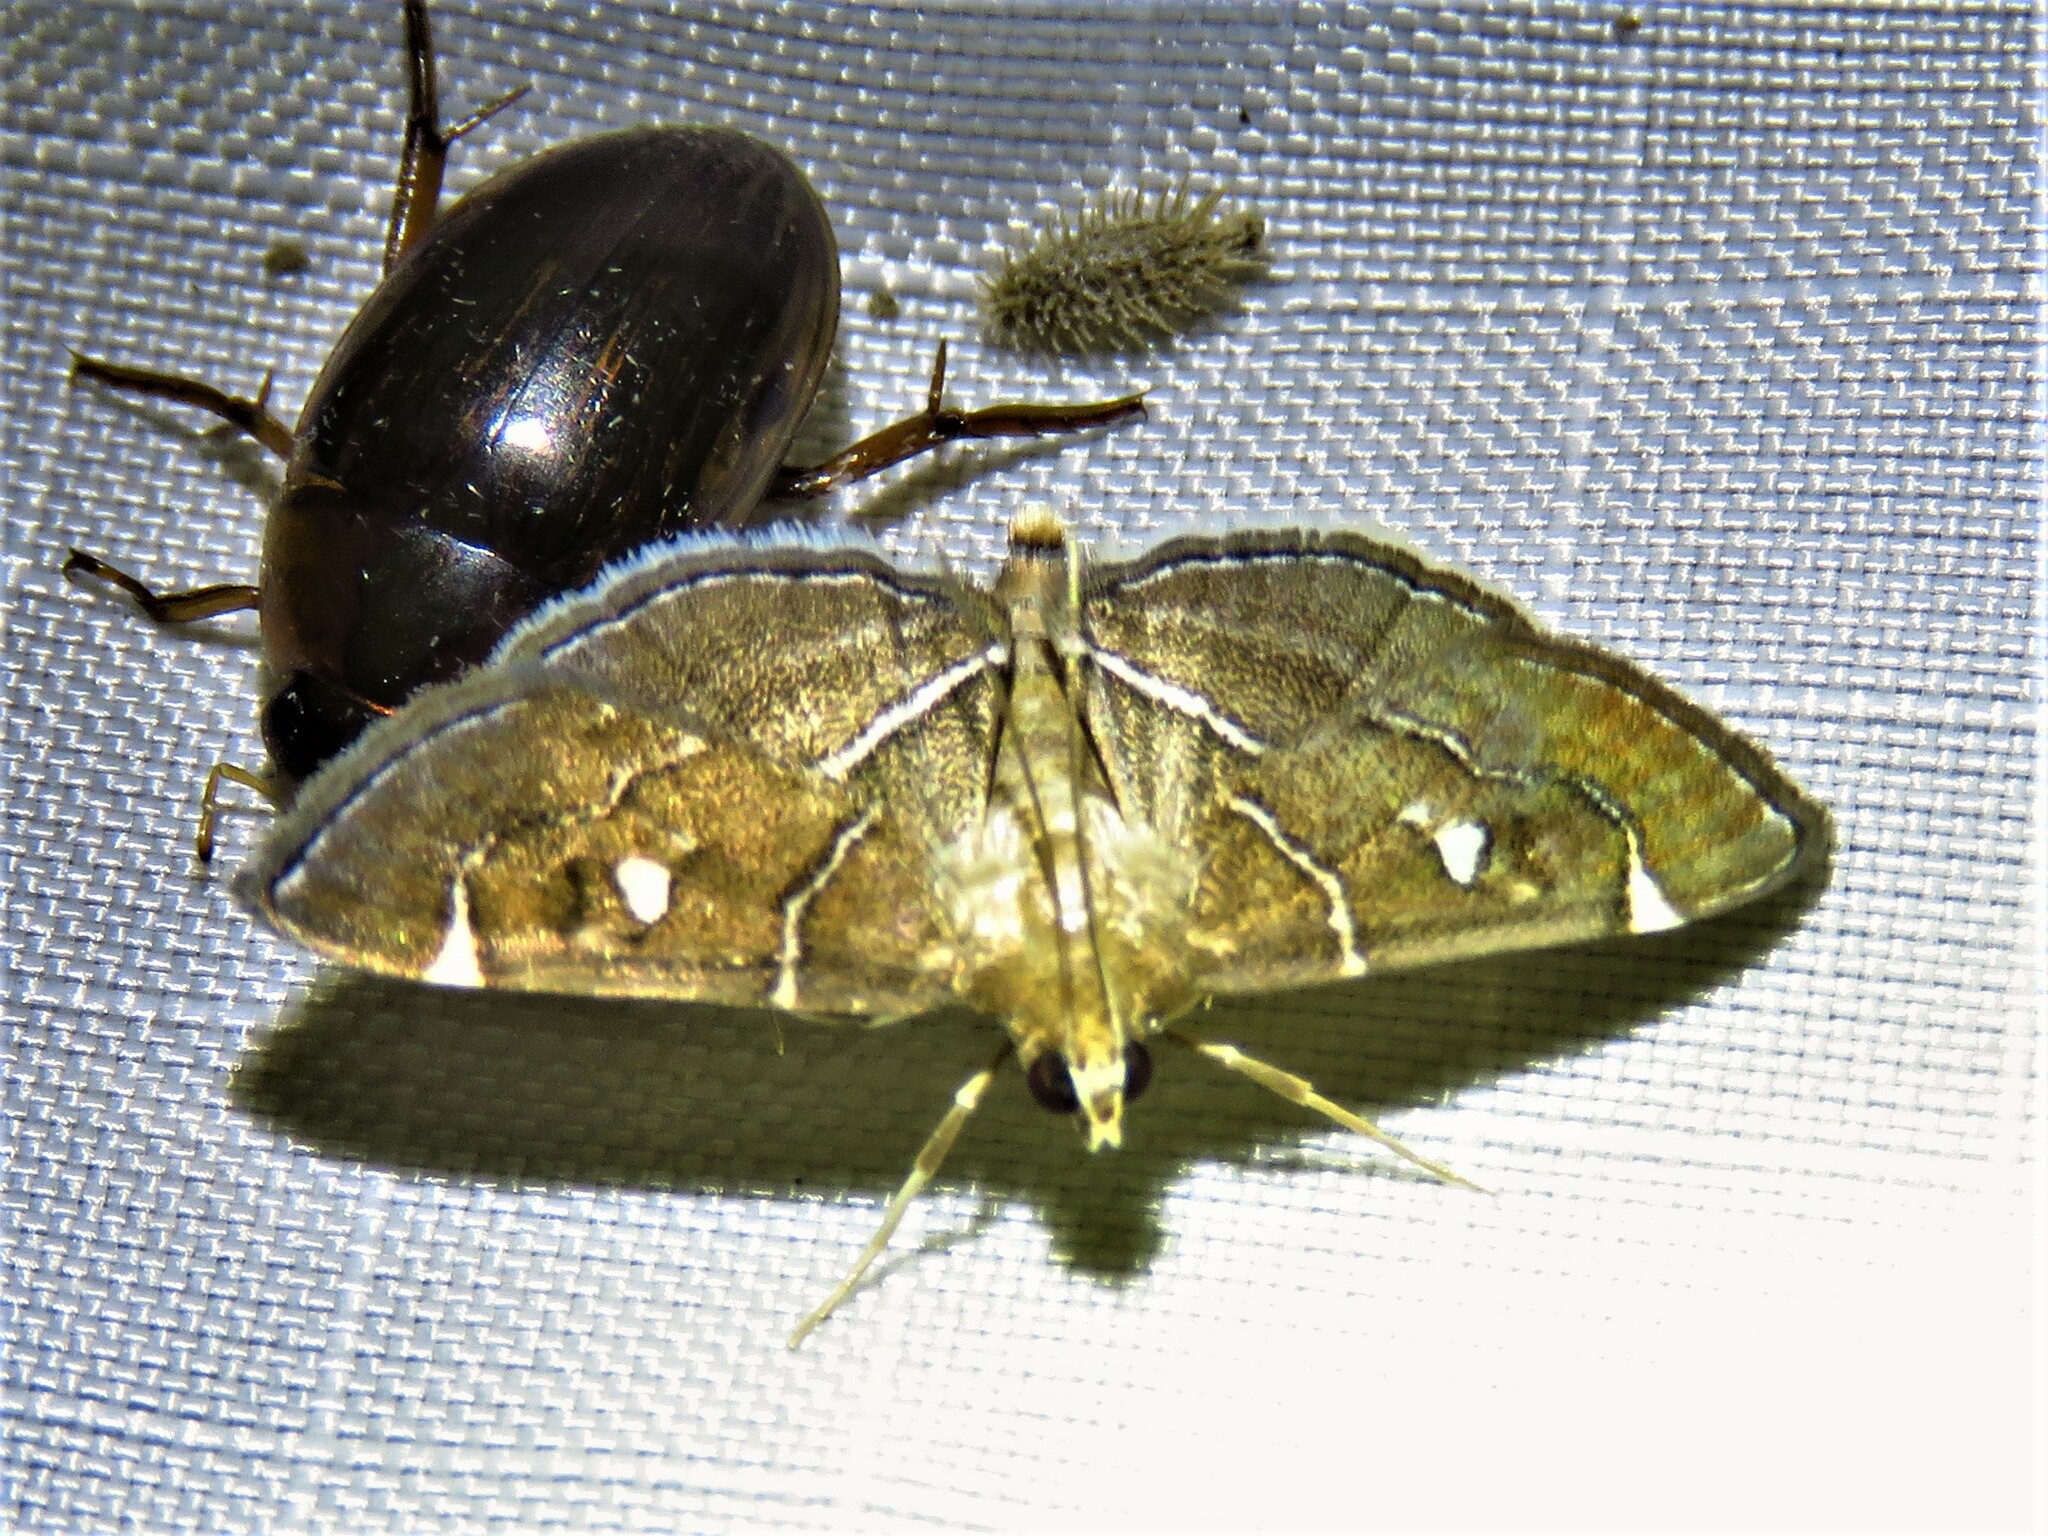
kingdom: Animalia
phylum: Arthropoda
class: Insecta
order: Lepidoptera
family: Crambidae
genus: Lamprosema
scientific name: Lamprosema victoriae
